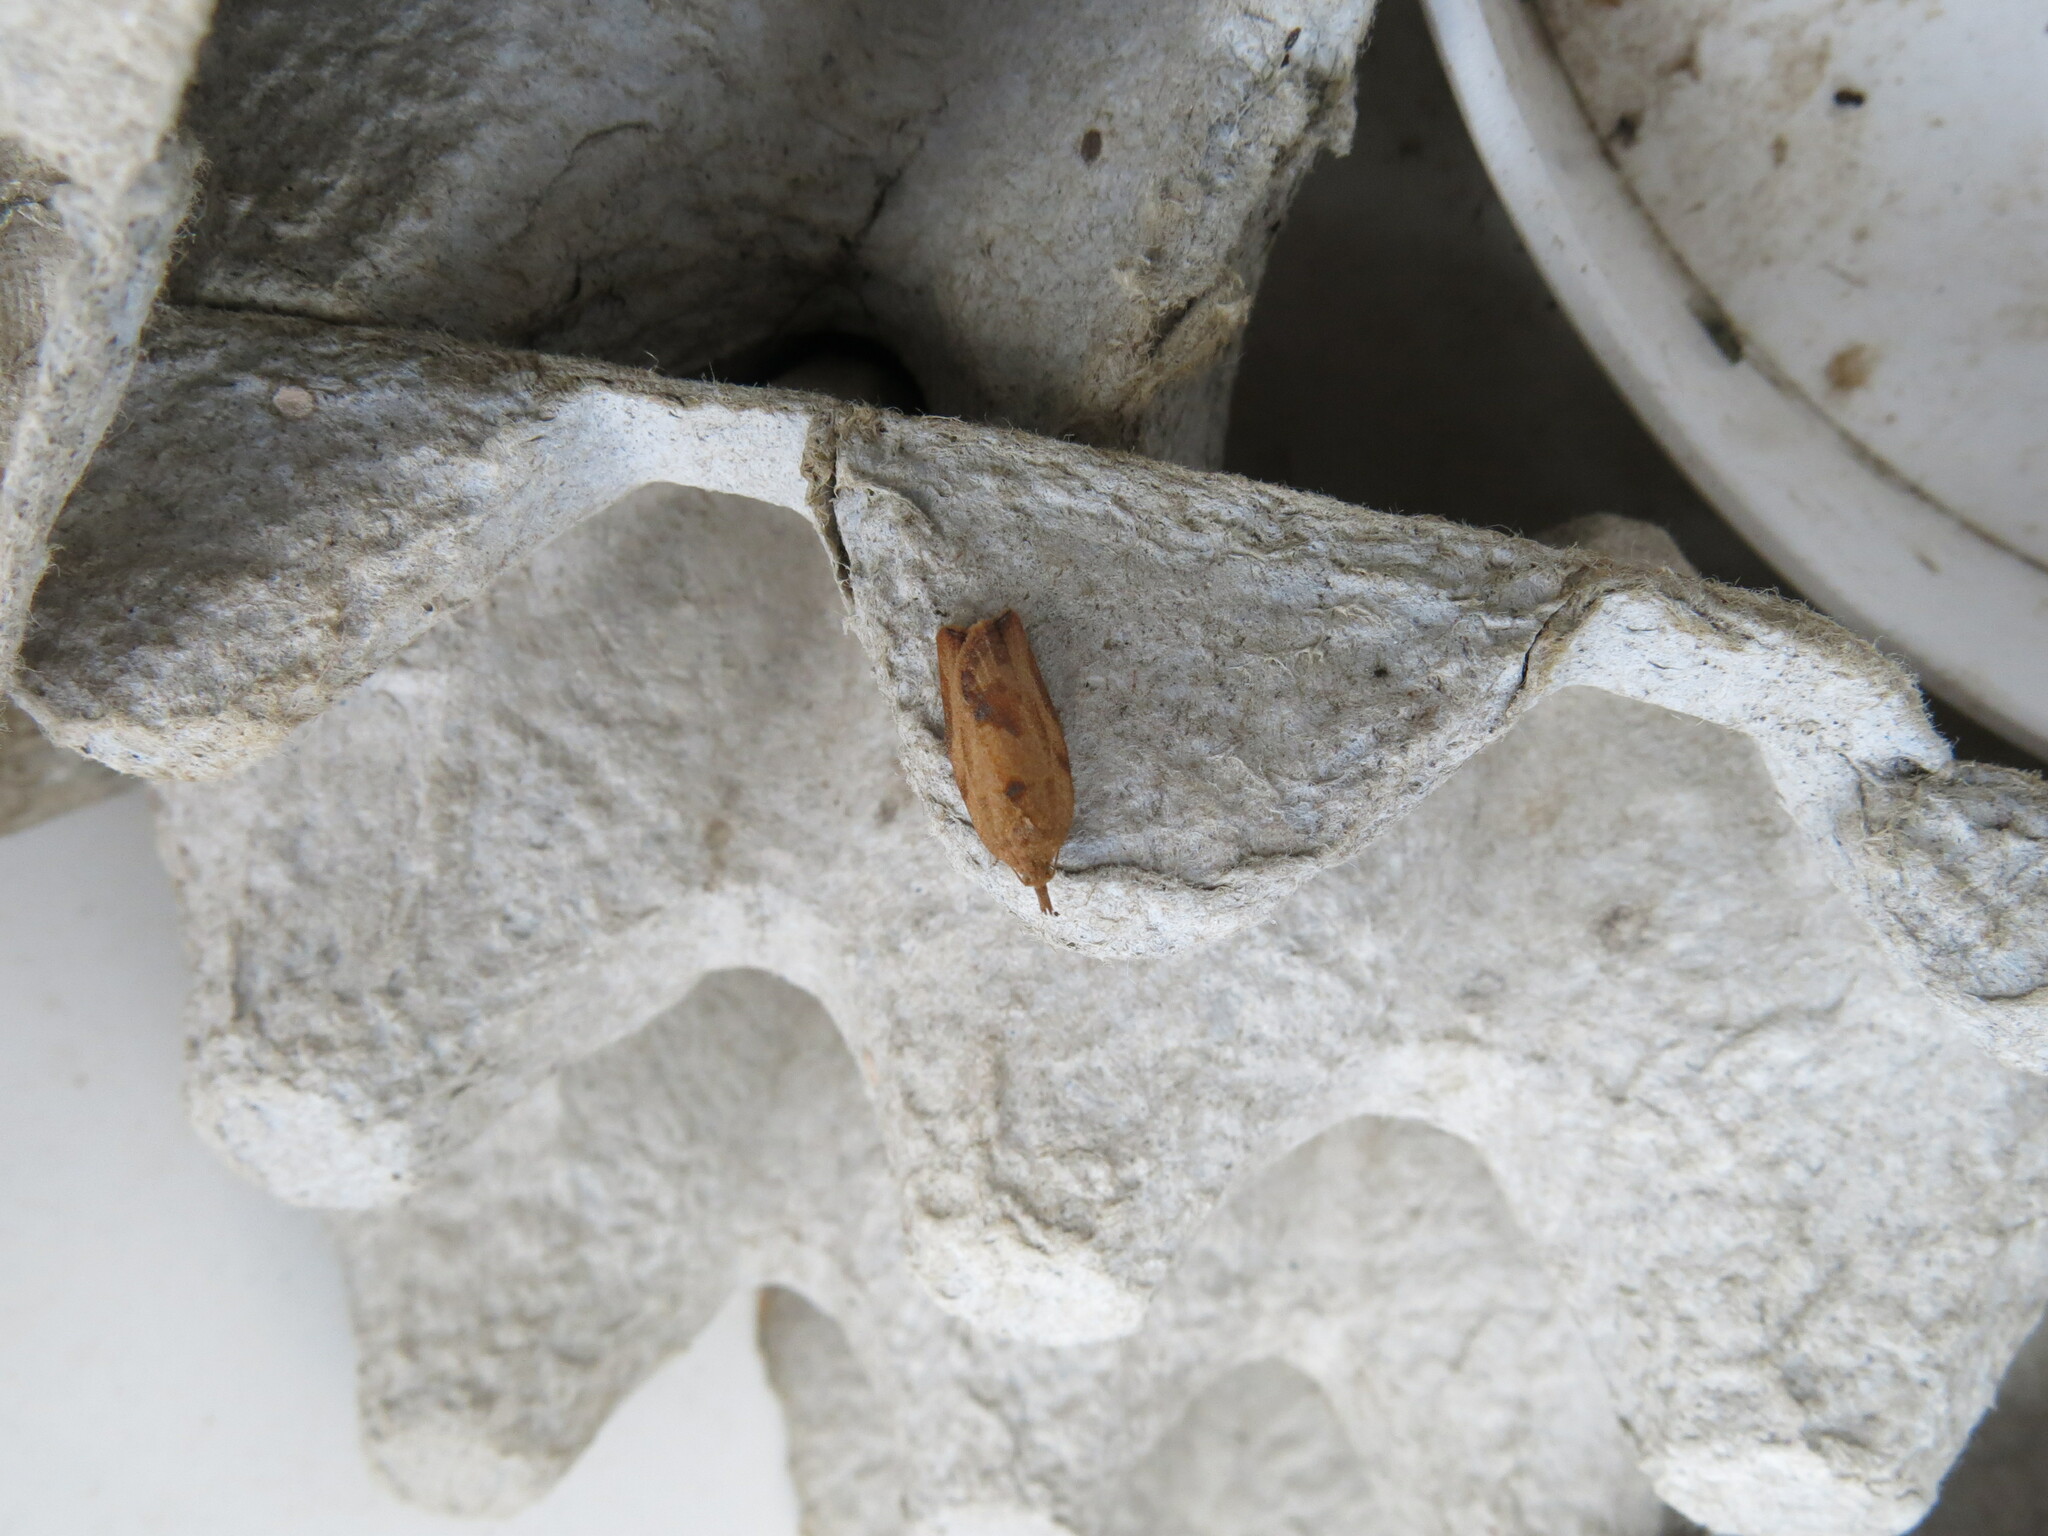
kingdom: Animalia
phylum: Arthropoda
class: Insecta
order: Lepidoptera
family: Tortricidae
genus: Epiphyas
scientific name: Epiphyas postvittana
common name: Light brown apple moth
